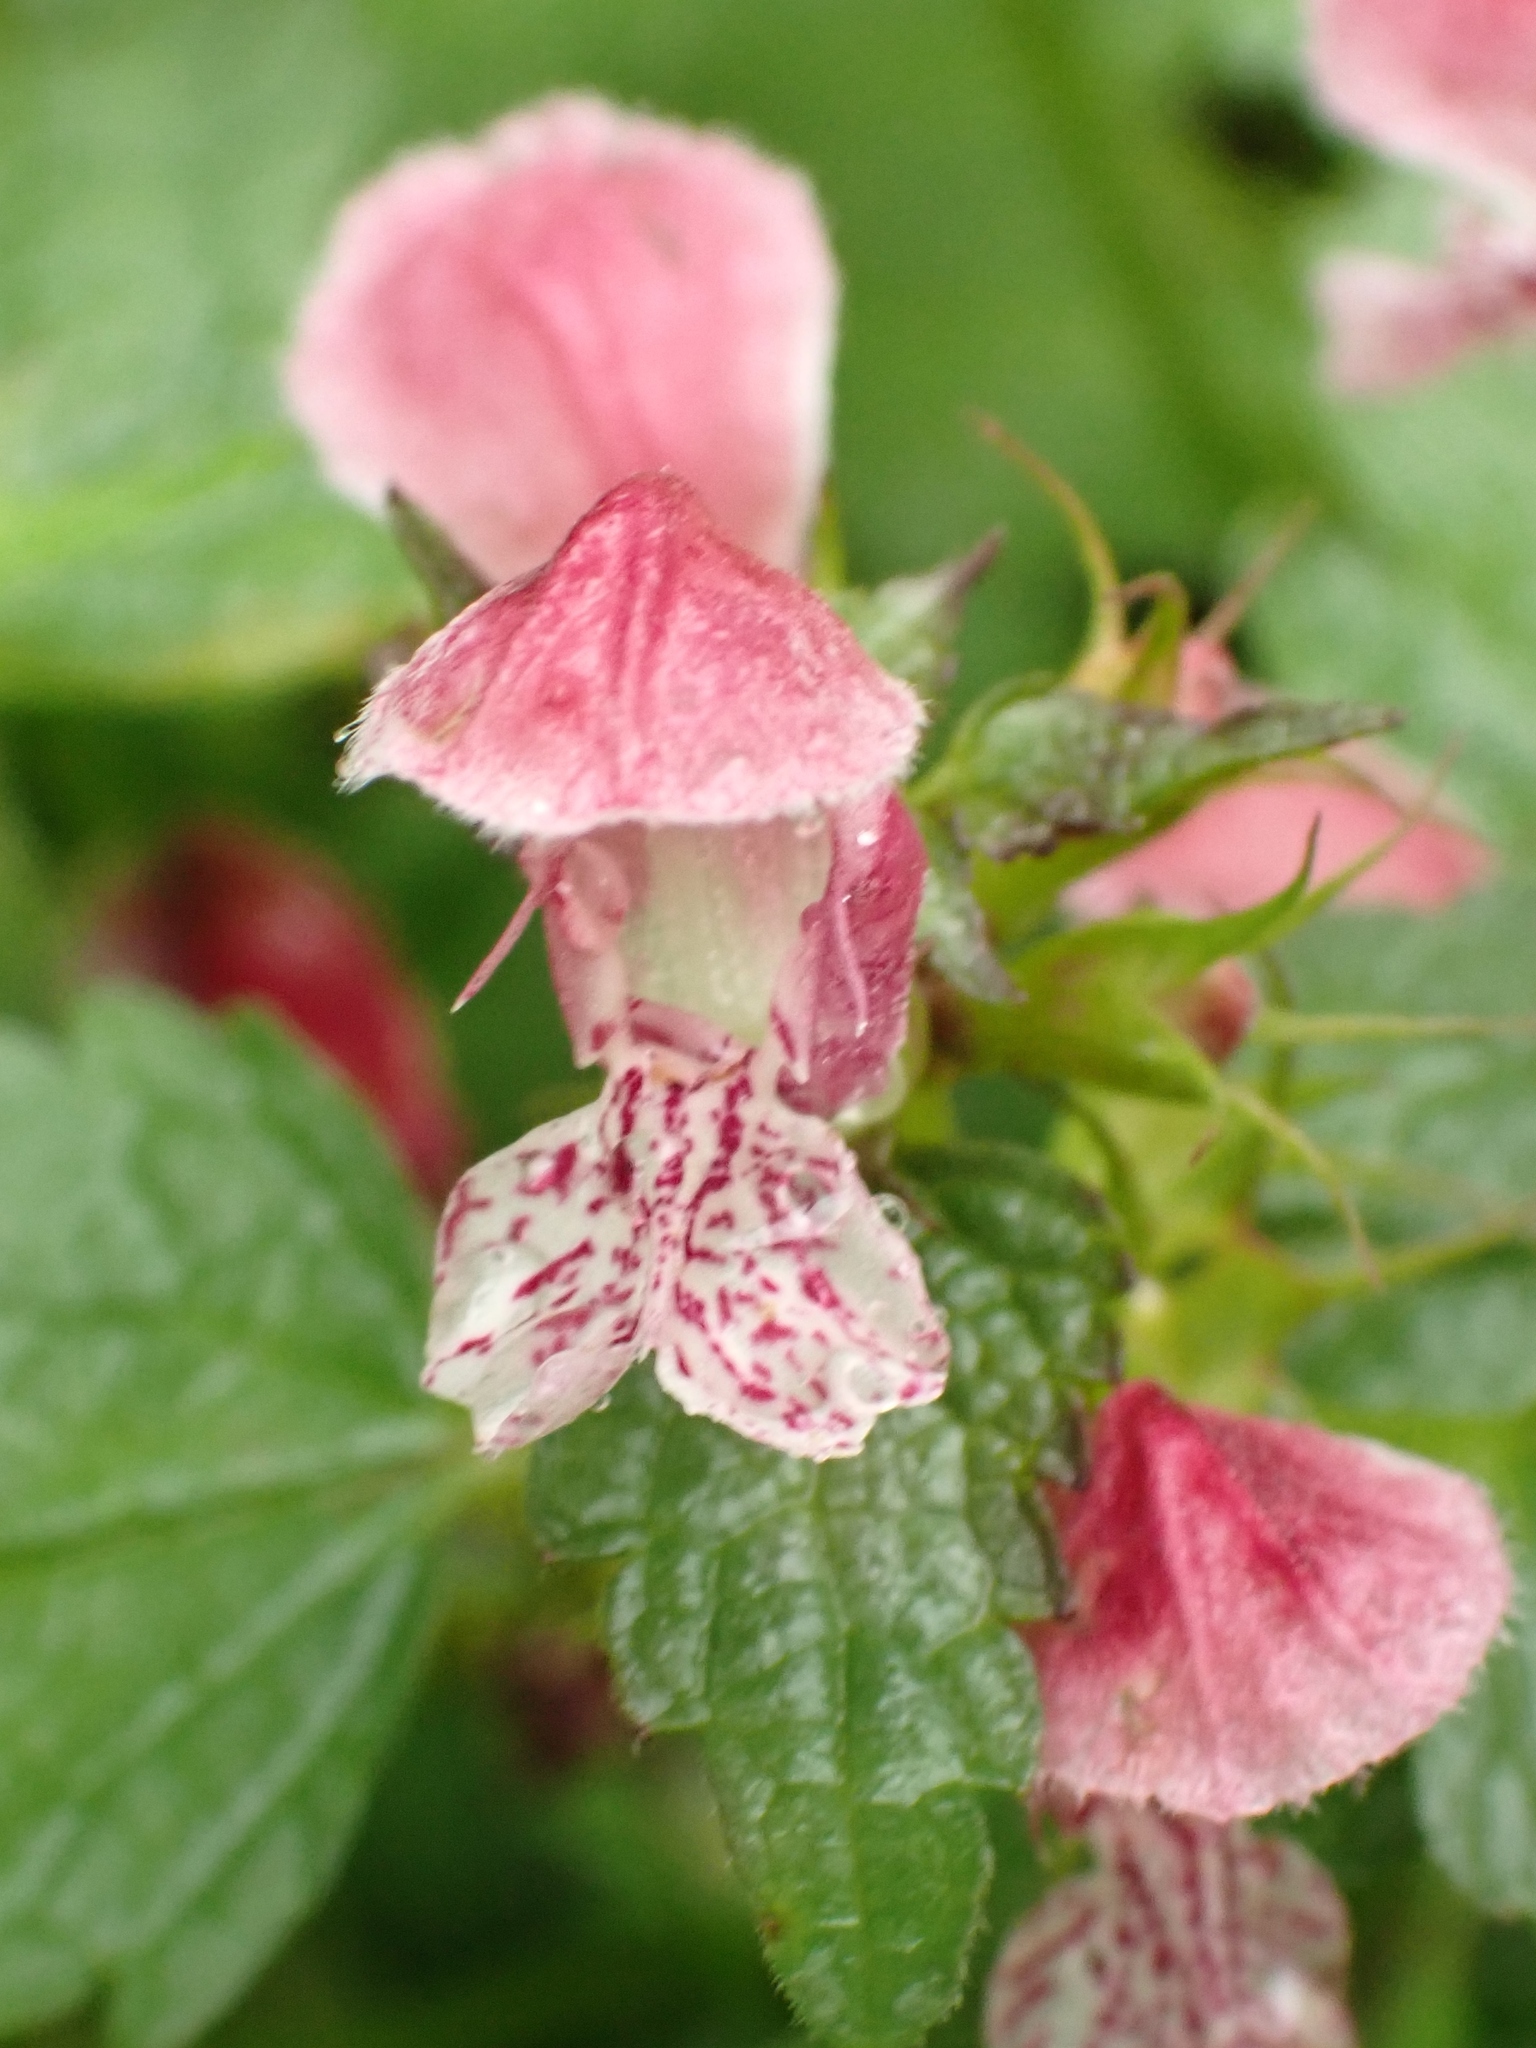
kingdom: Plantae
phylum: Tracheophyta
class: Magnoliopsida
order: Lamiales
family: Lamiaceae
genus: Lamium
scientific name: Lamium orvala
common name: Balm-leaved archangel
